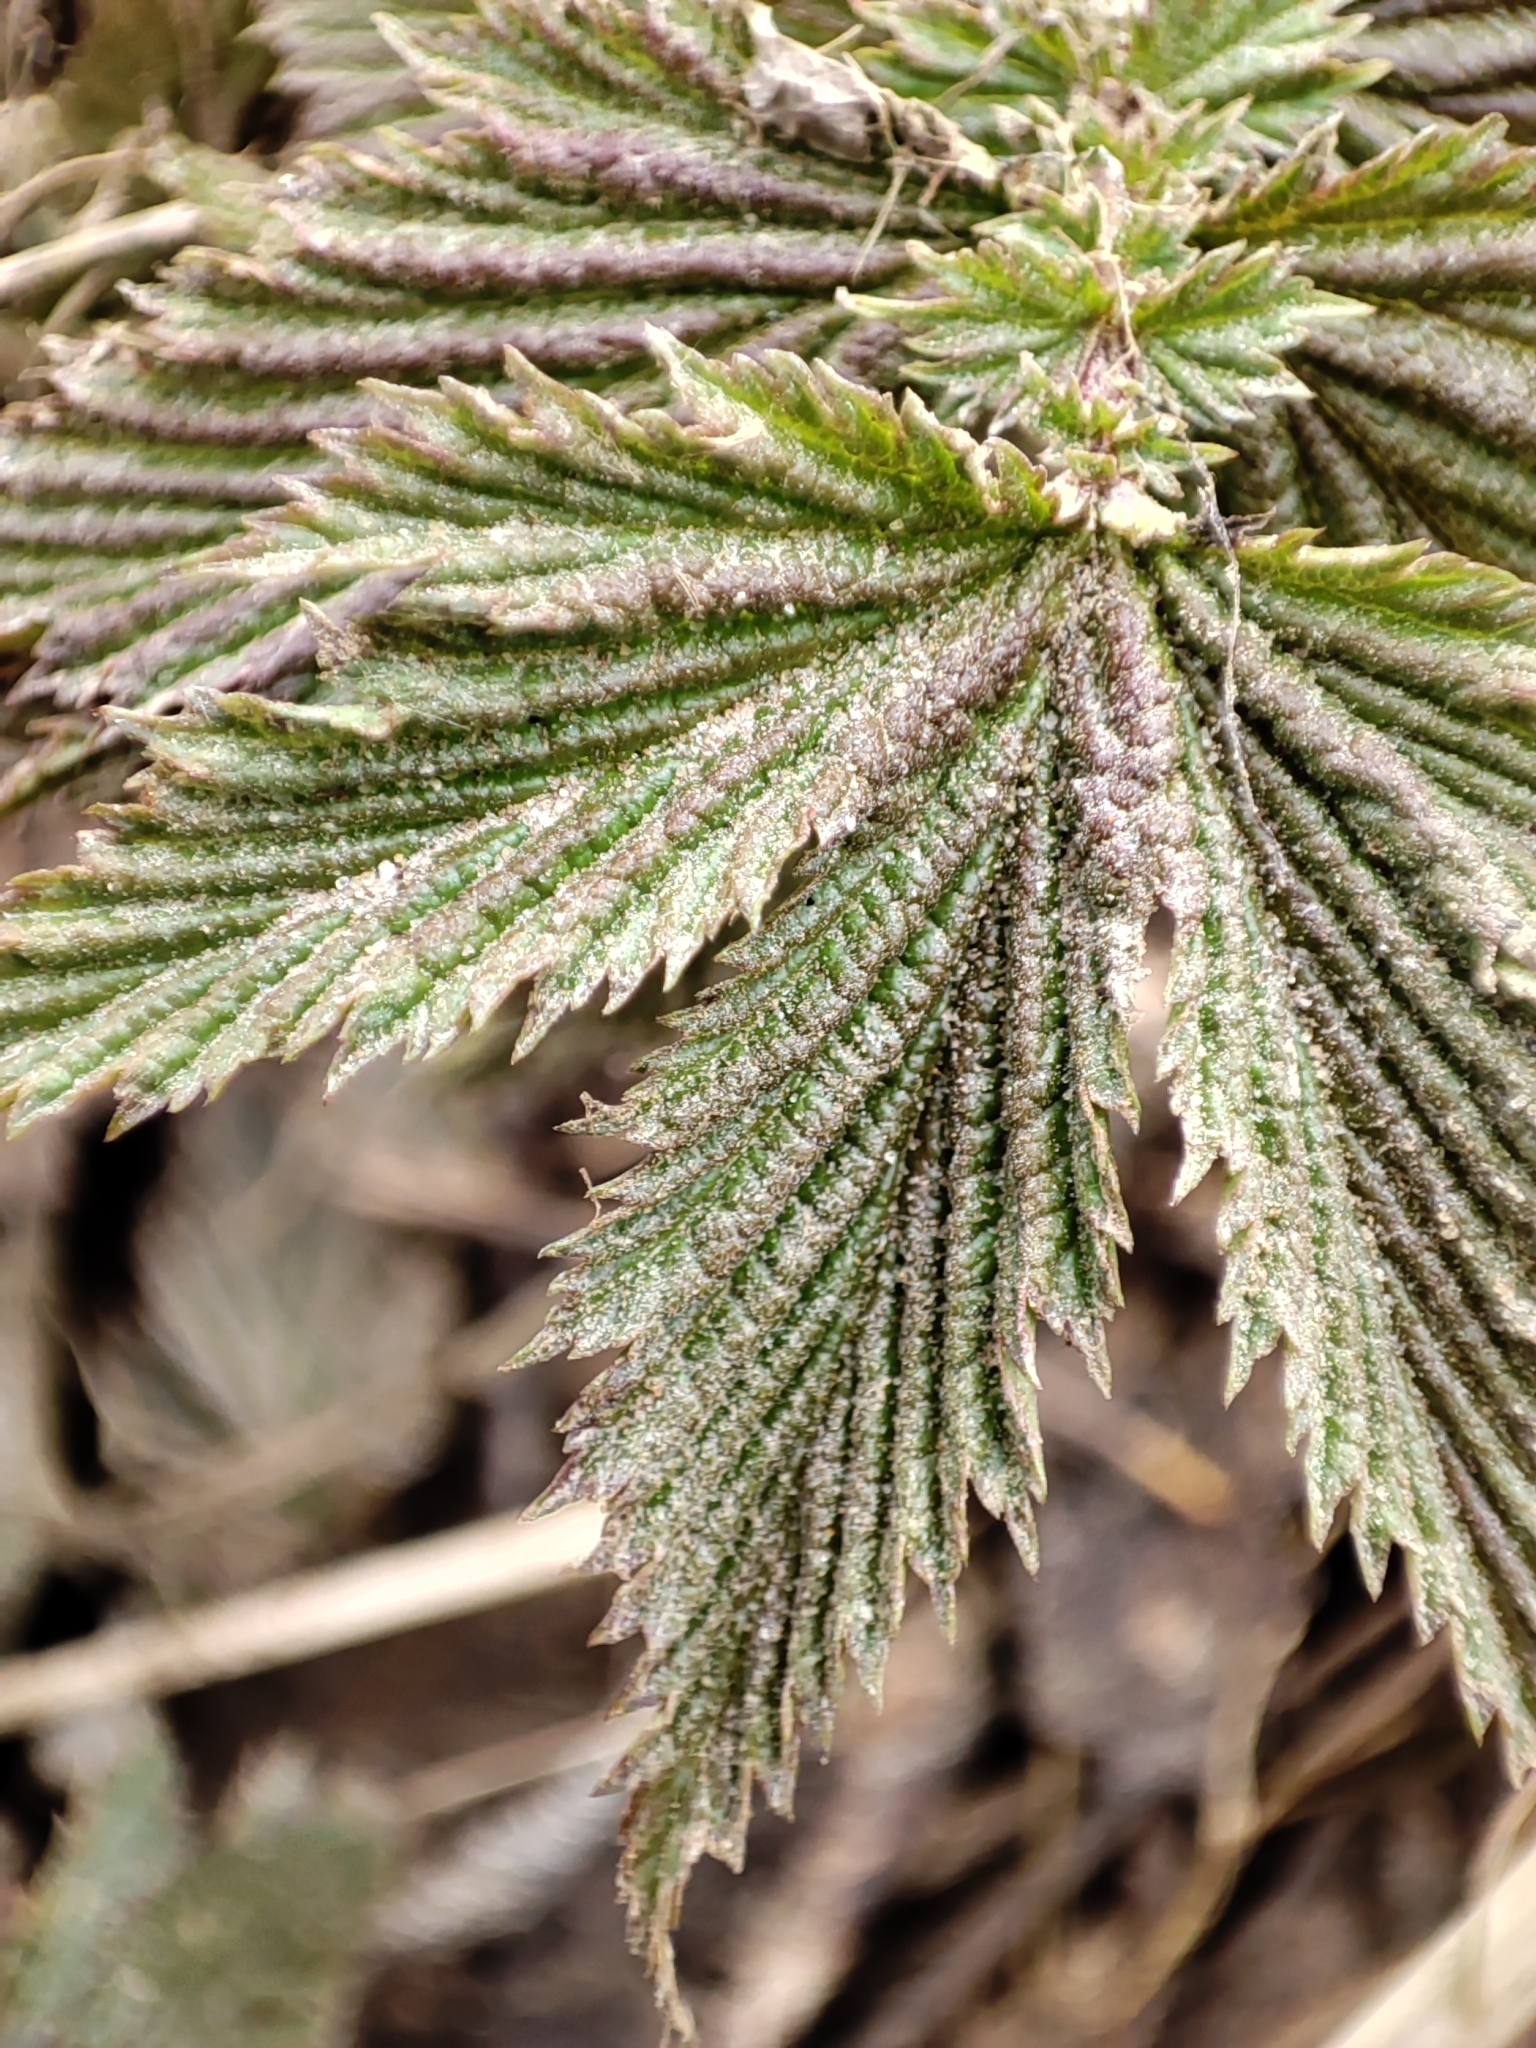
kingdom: Plantae
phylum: Tracheophyta
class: Magnoliopsida
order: Rosales
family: Rosaceae
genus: Filipendula
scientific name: Filipendula ulmaria
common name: Meadowsweet
